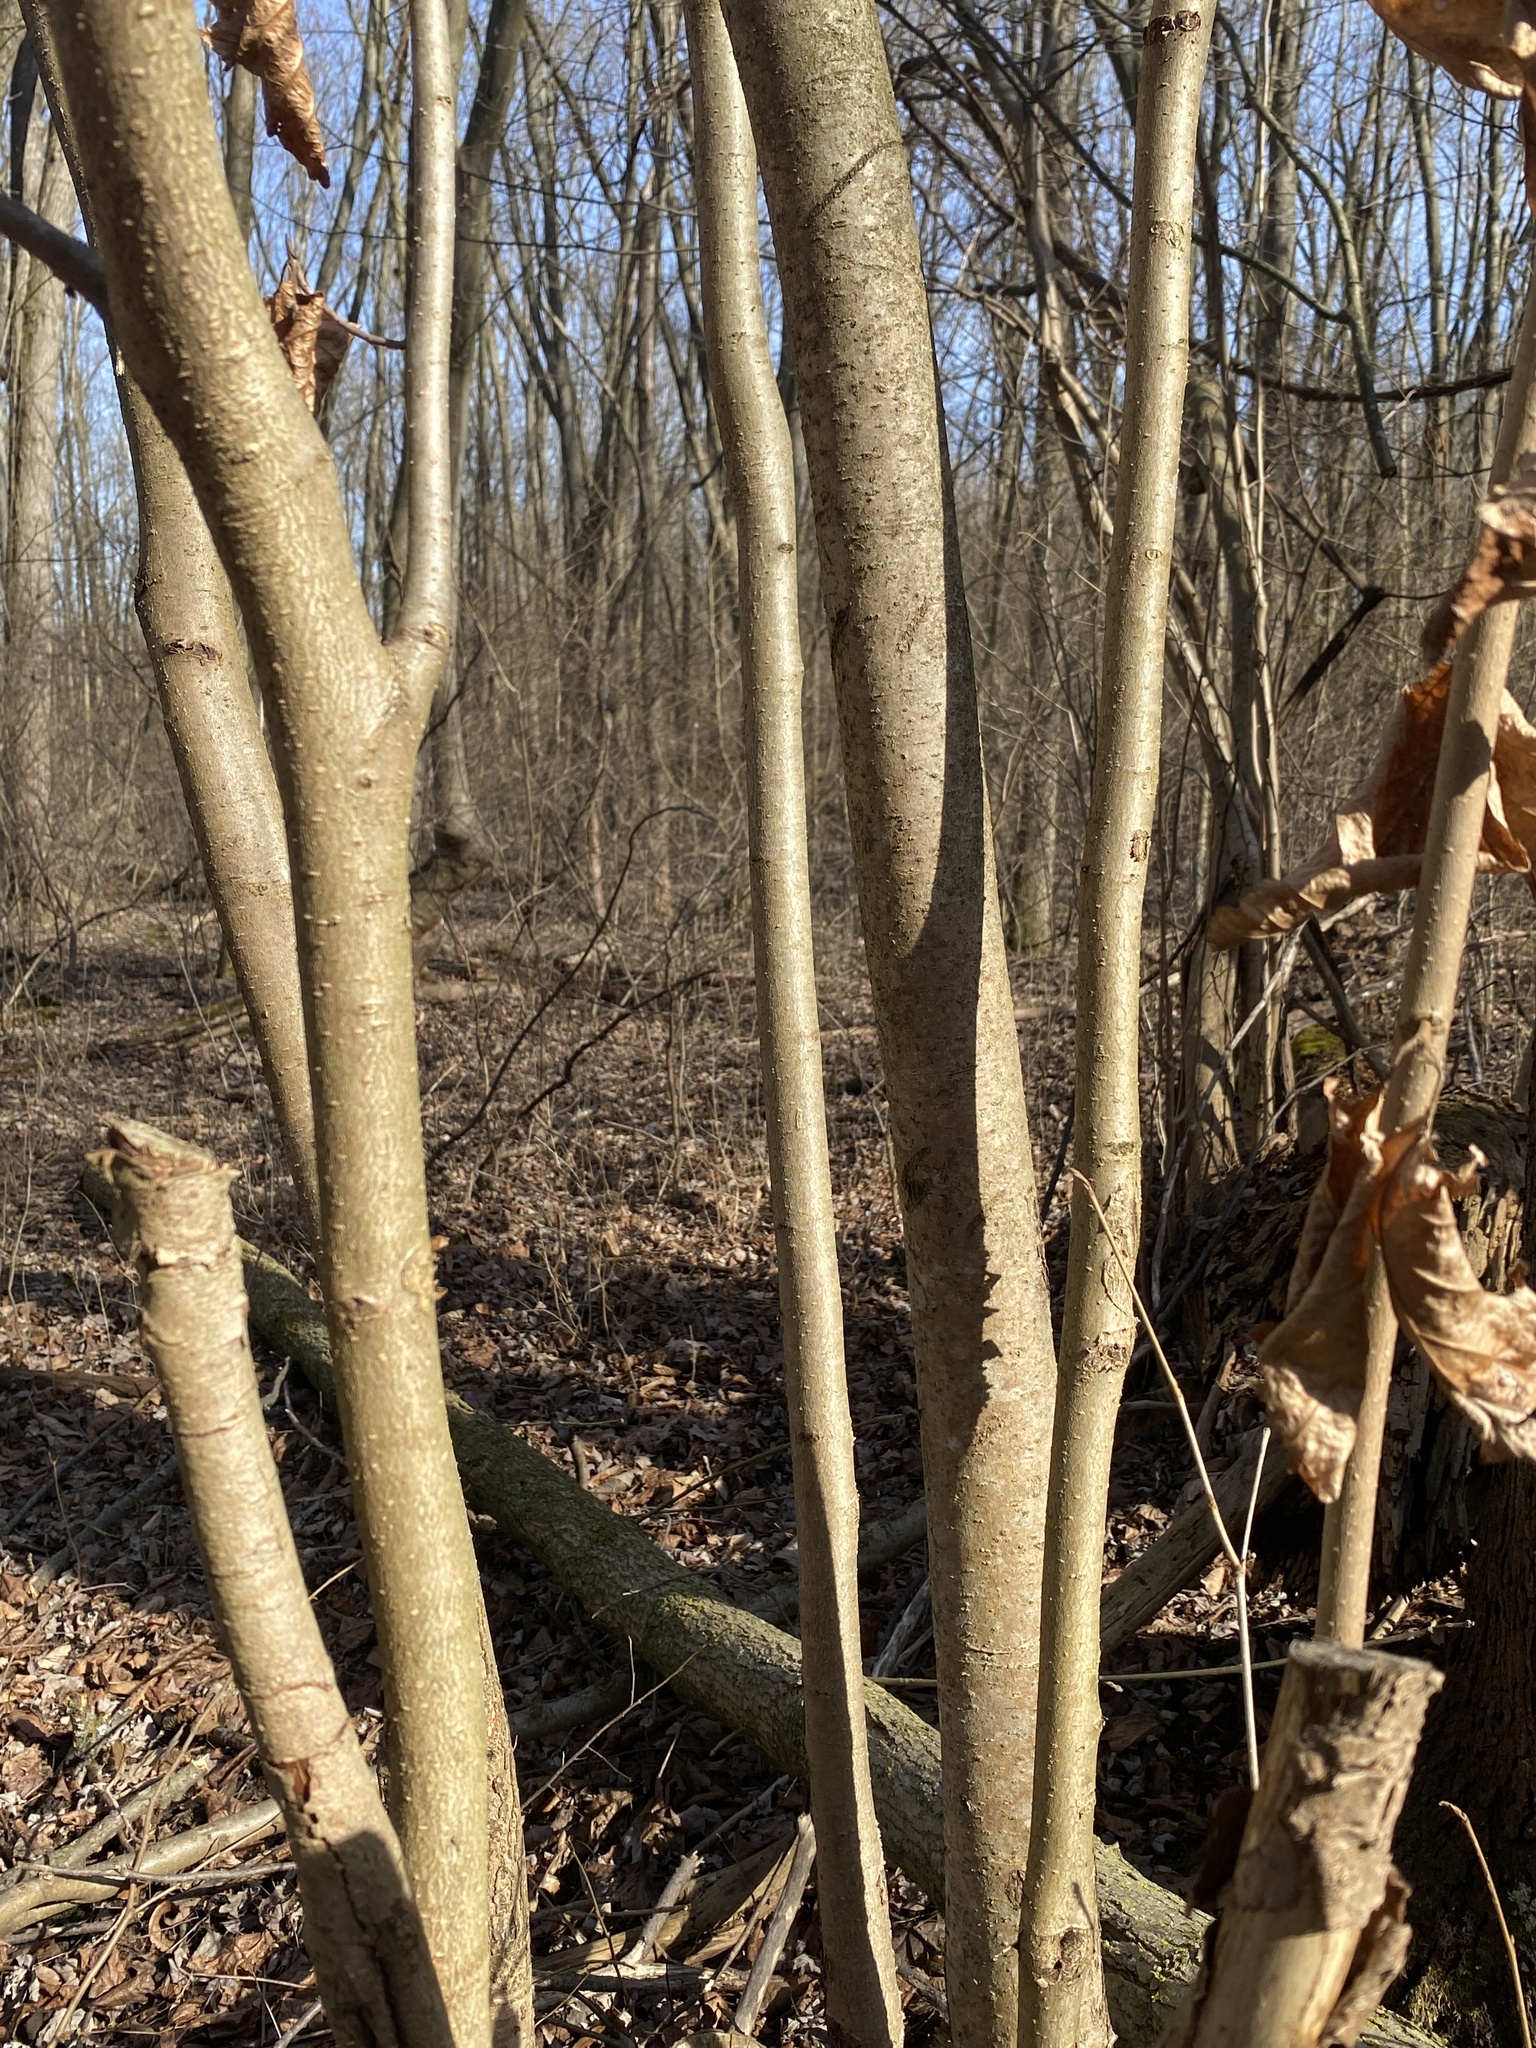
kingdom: Plantae
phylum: Tracheophyta
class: Magnoliopsida
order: Saxifragales
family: Hamamelidaceae
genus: Hamamelis
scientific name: Hamamelis virginiana
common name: Witch-hazel
